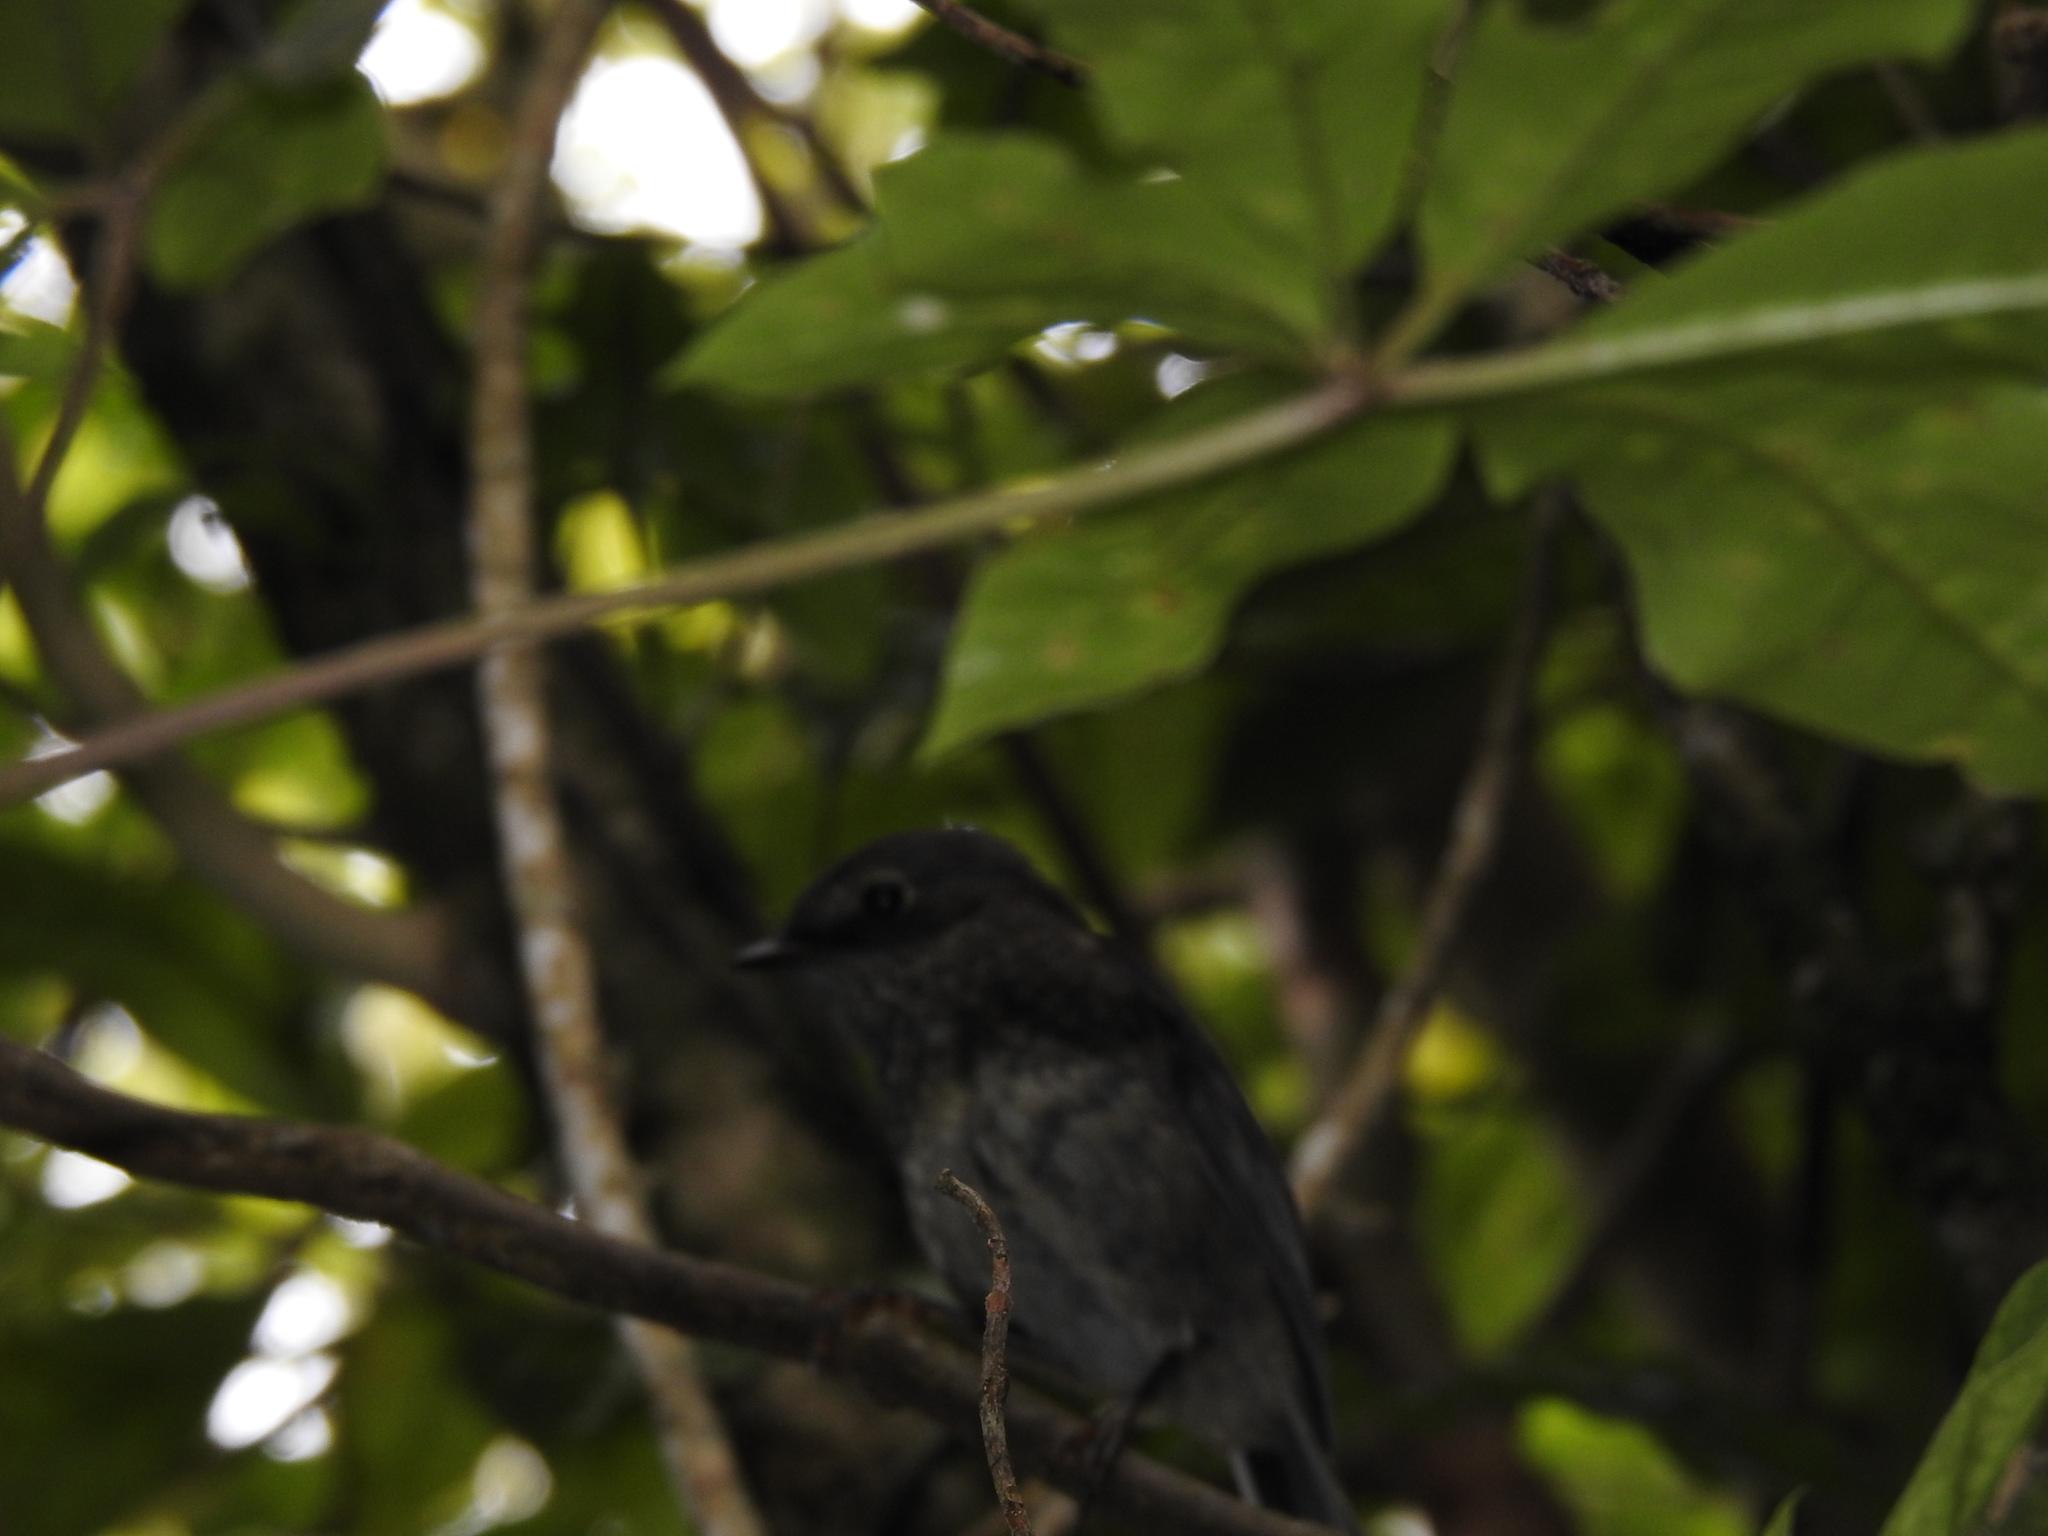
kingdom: Animalia
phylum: Chordata
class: Aves
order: Passeriformes
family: Petroicidae
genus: Petroica
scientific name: Petroica australis
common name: New zealand robin
